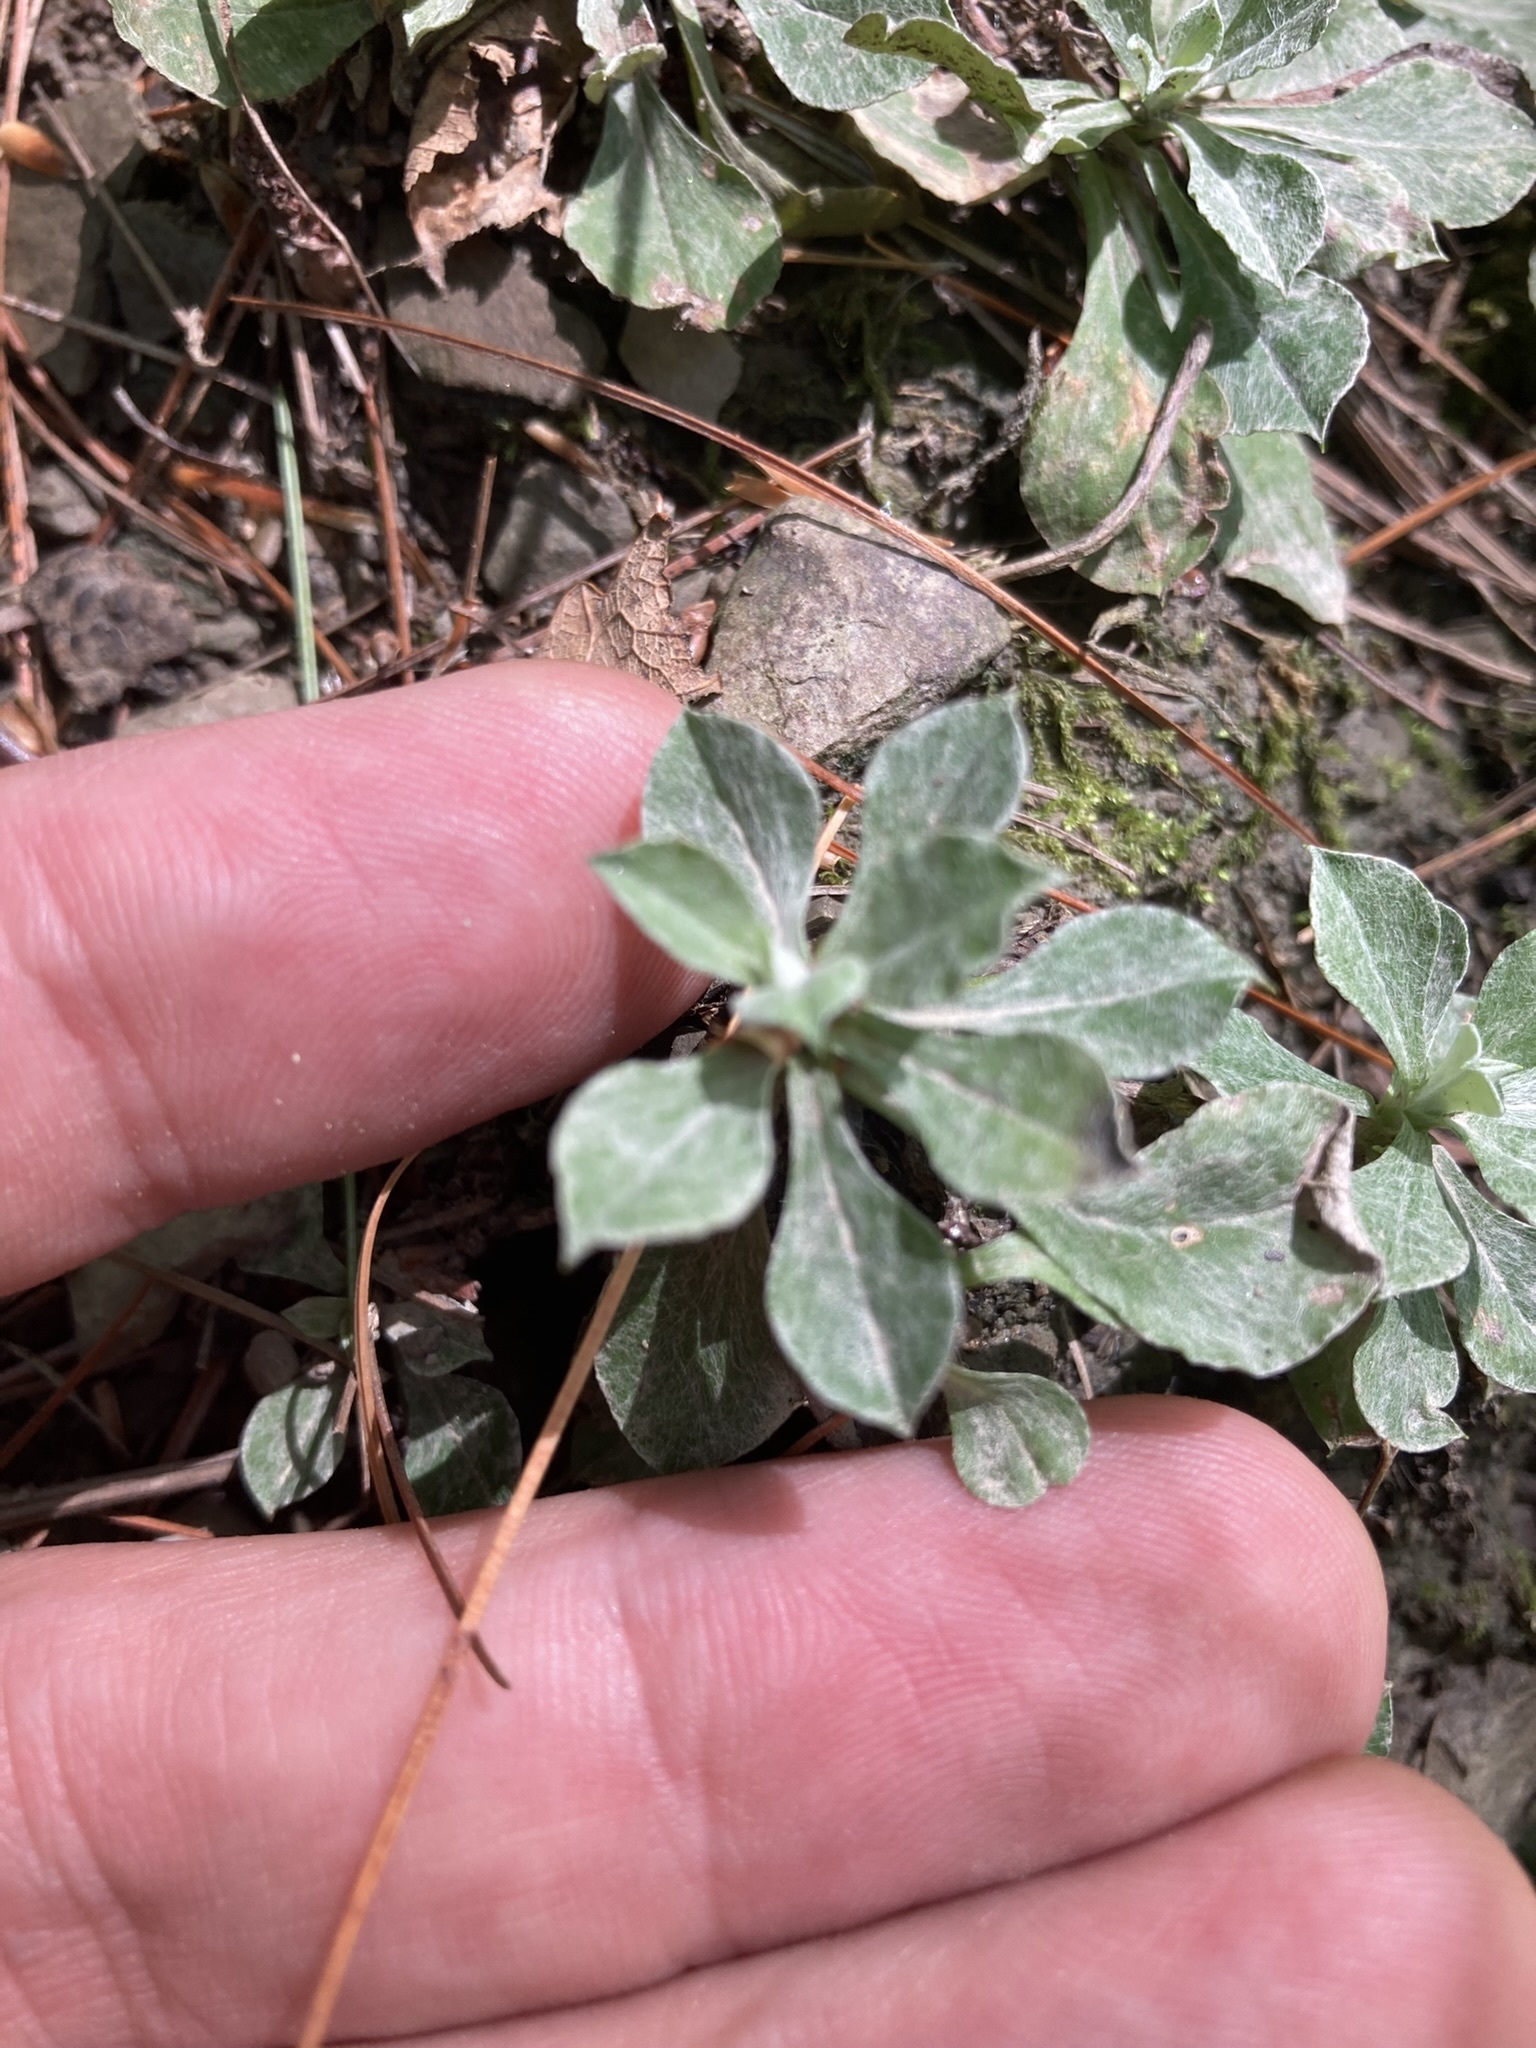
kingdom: Plantae
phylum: Tracheophyta
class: Magnoliopsida
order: Asterales
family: Asteraceae
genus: Antennaria
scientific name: Antennaria howellii
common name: Howell's pussytoes
